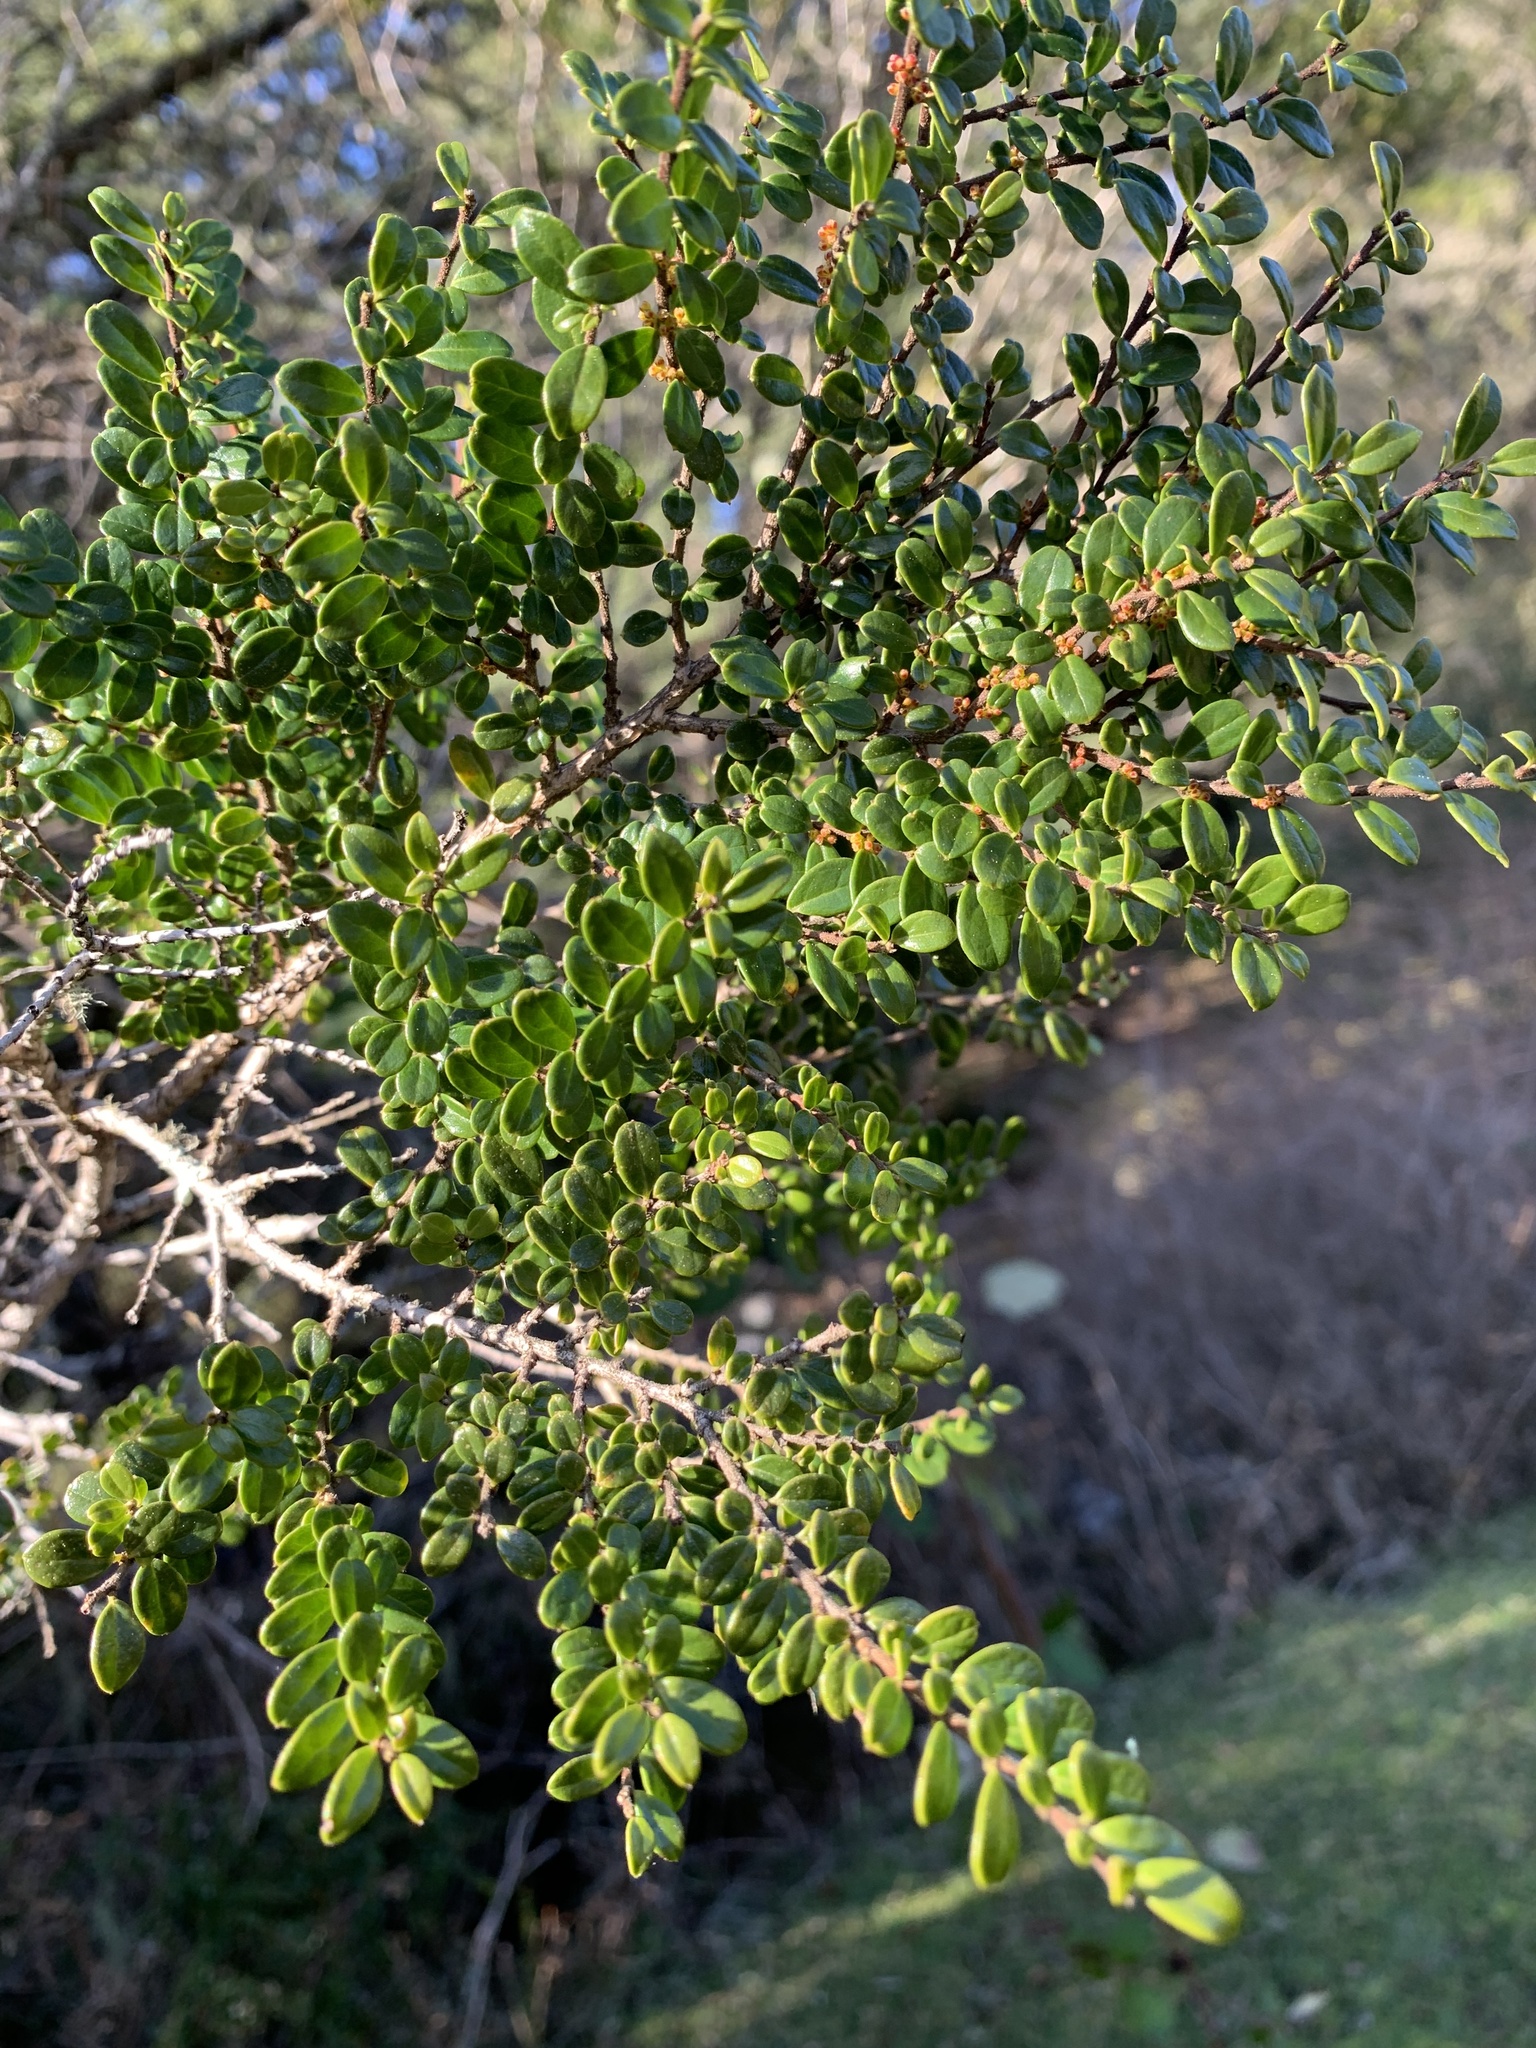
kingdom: Plantae
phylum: Tracheophyta
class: Magnoliopsida
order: Malpighiales
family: Salicaceae
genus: Azara
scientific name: Azara microphylla
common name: Box-leaf azara
